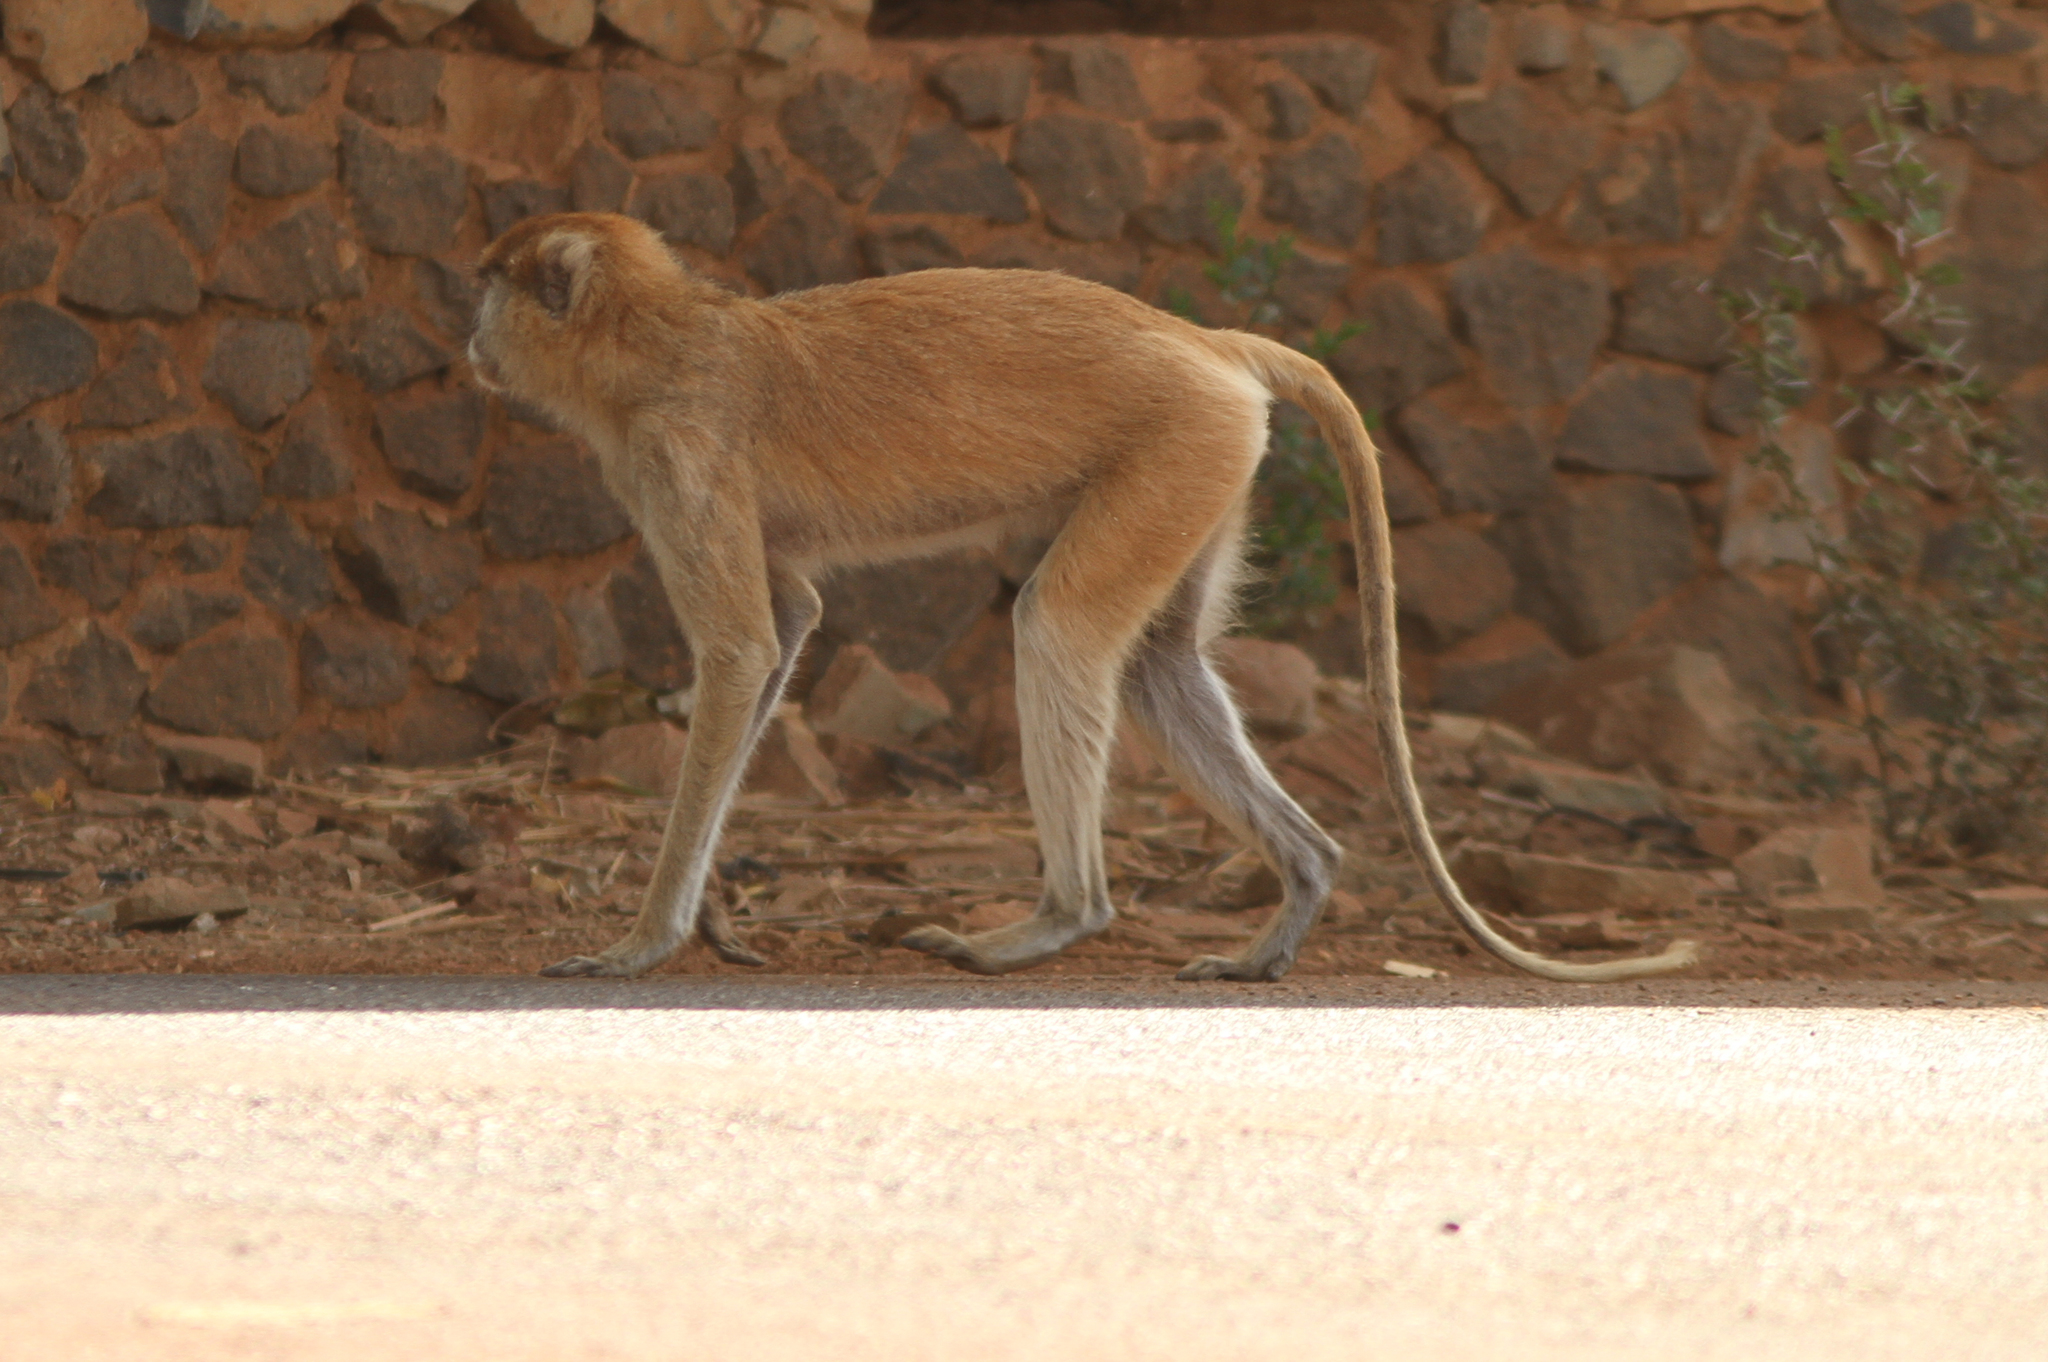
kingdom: Animalia
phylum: Chordata
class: Mammalia
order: Primates
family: Cercopithecidae
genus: Erythrocebus
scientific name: Erythrocebus patas
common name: Patas monkey
